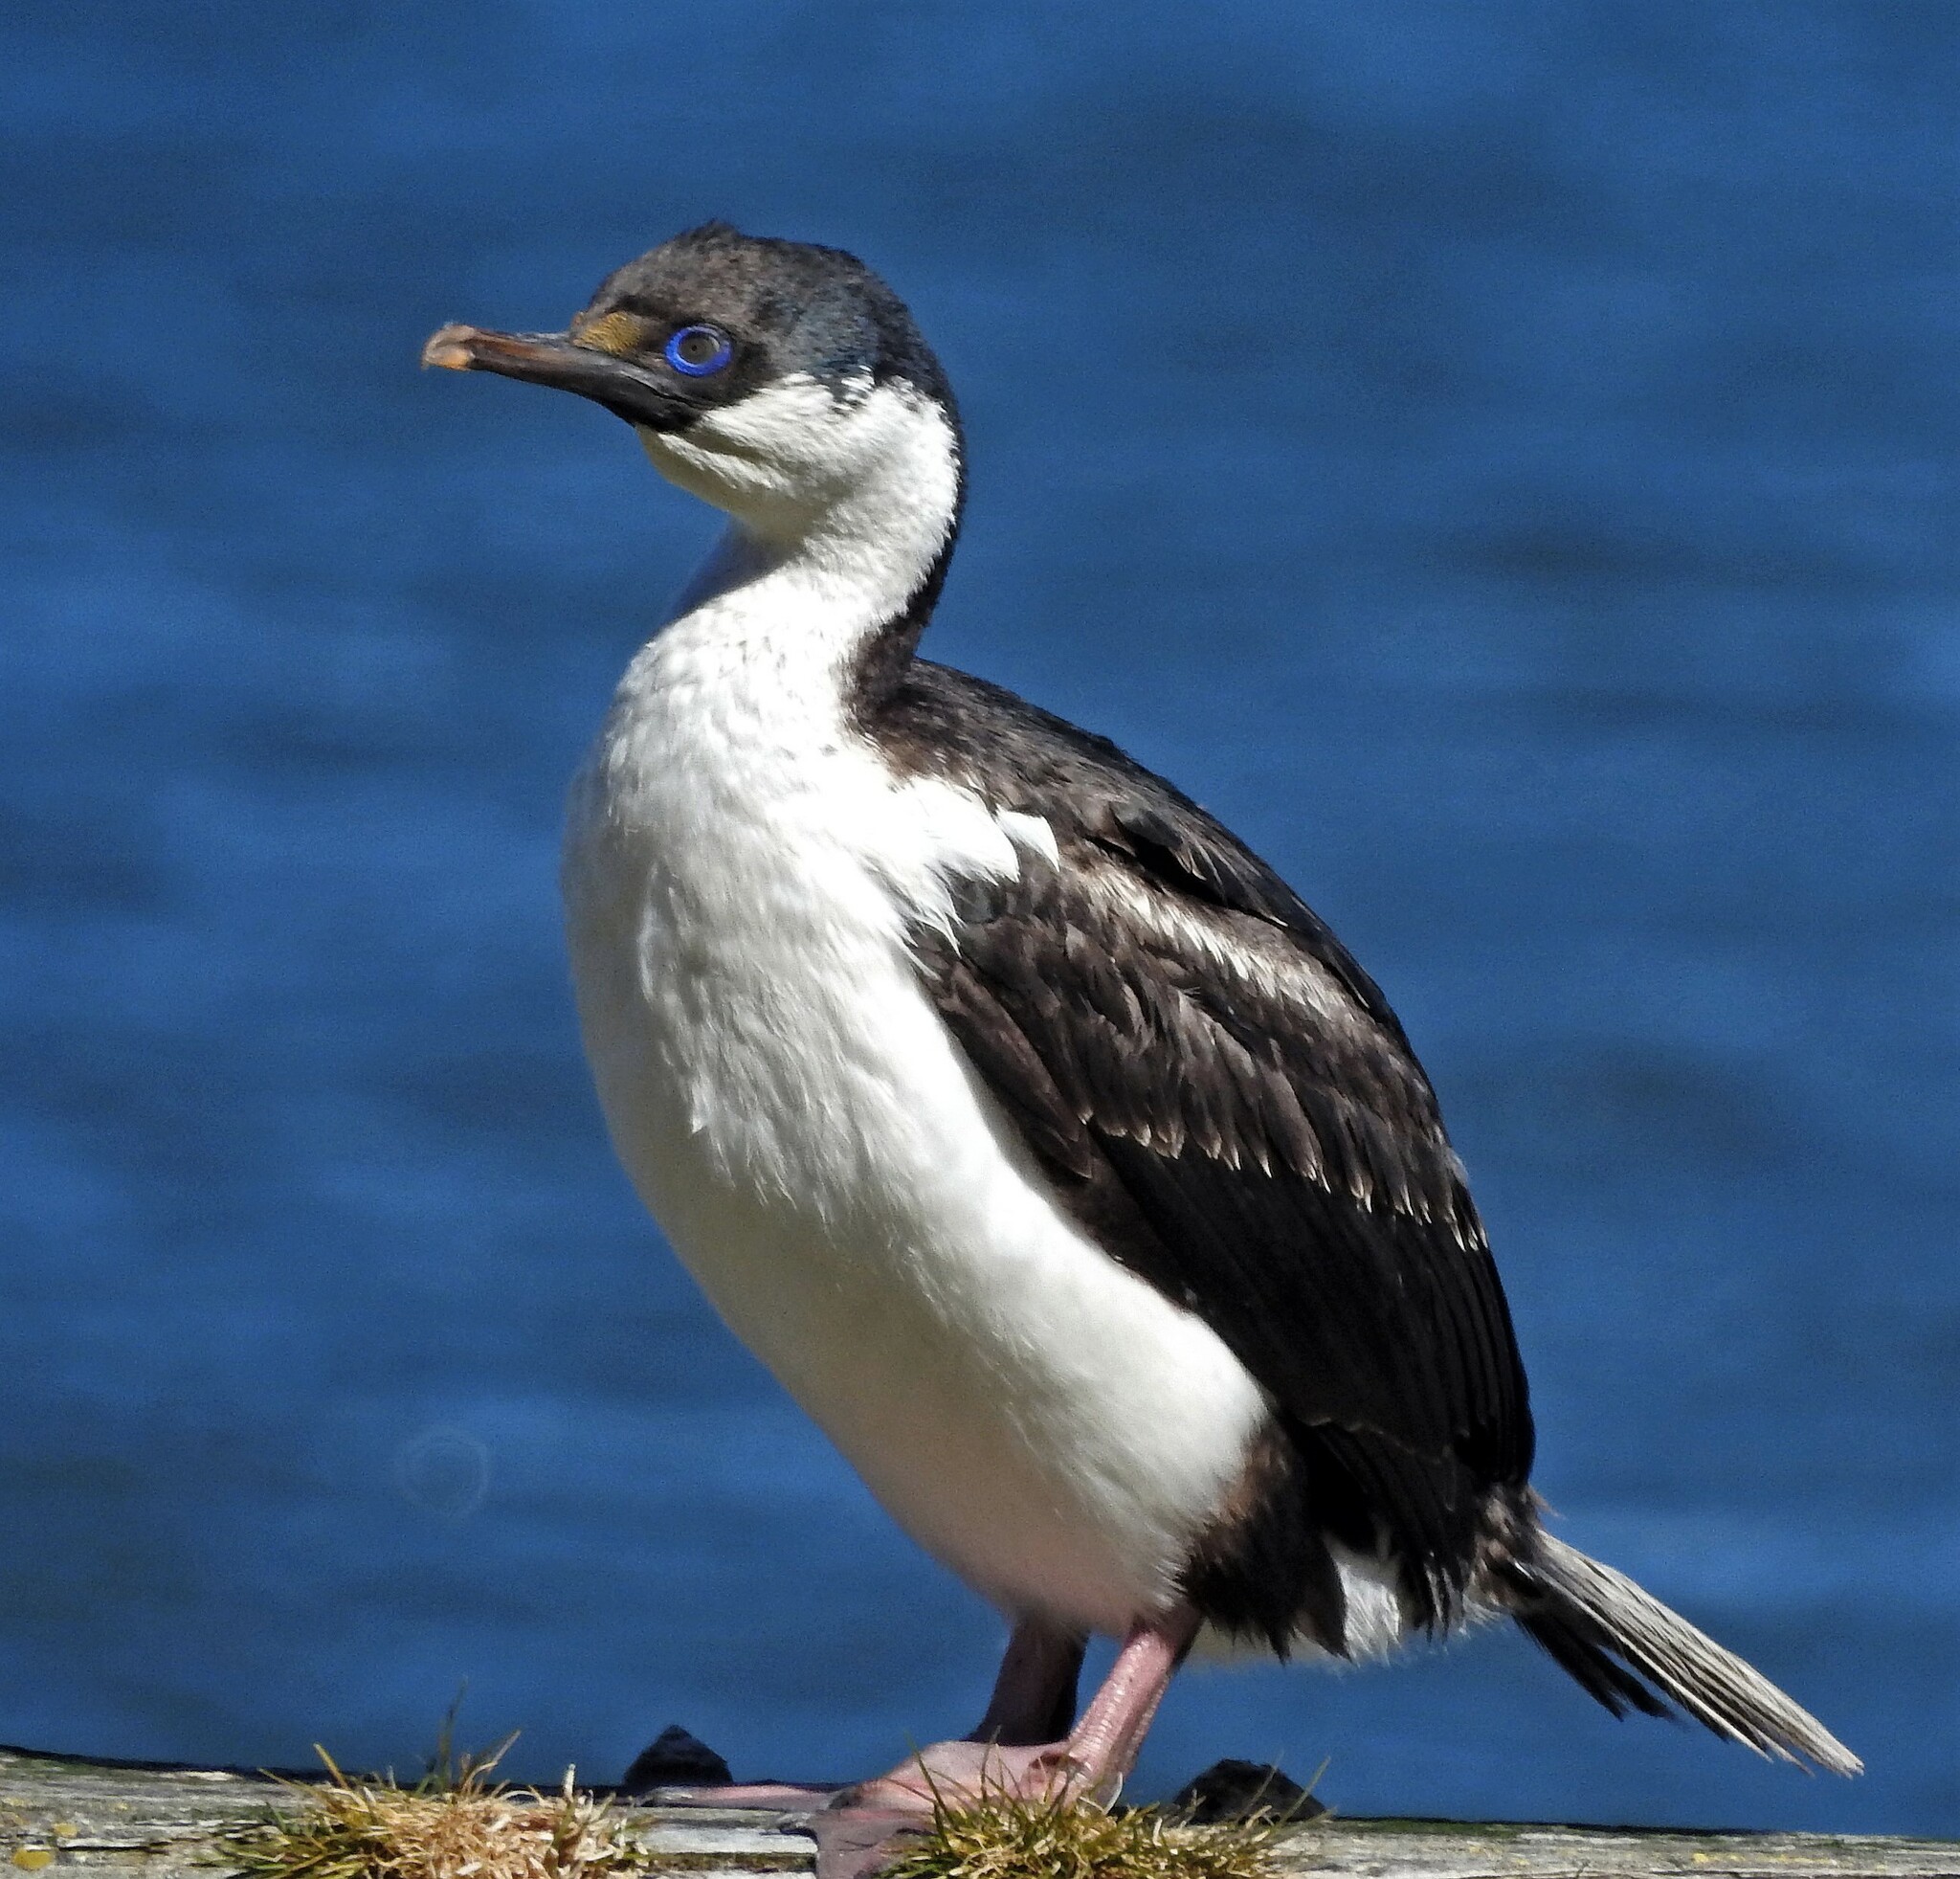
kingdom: Animalia
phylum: Chordata
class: Aves
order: Suliformes
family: Phalacrocoracidae
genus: Leucocarbo
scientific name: Leucocarbo atriceps
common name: Imperial shag
